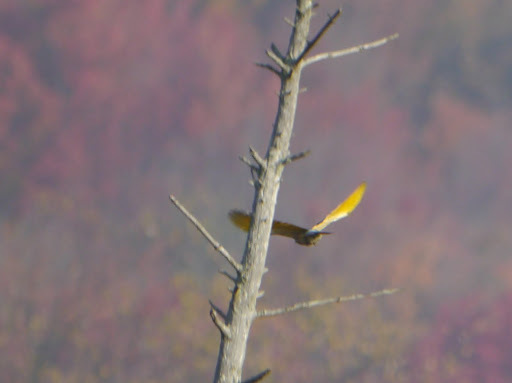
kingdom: Animalia
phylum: Chordata
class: Aves
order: Piciformes
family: Picidae
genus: Colaptes
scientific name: Colaptes auratus
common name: Northern flicker
